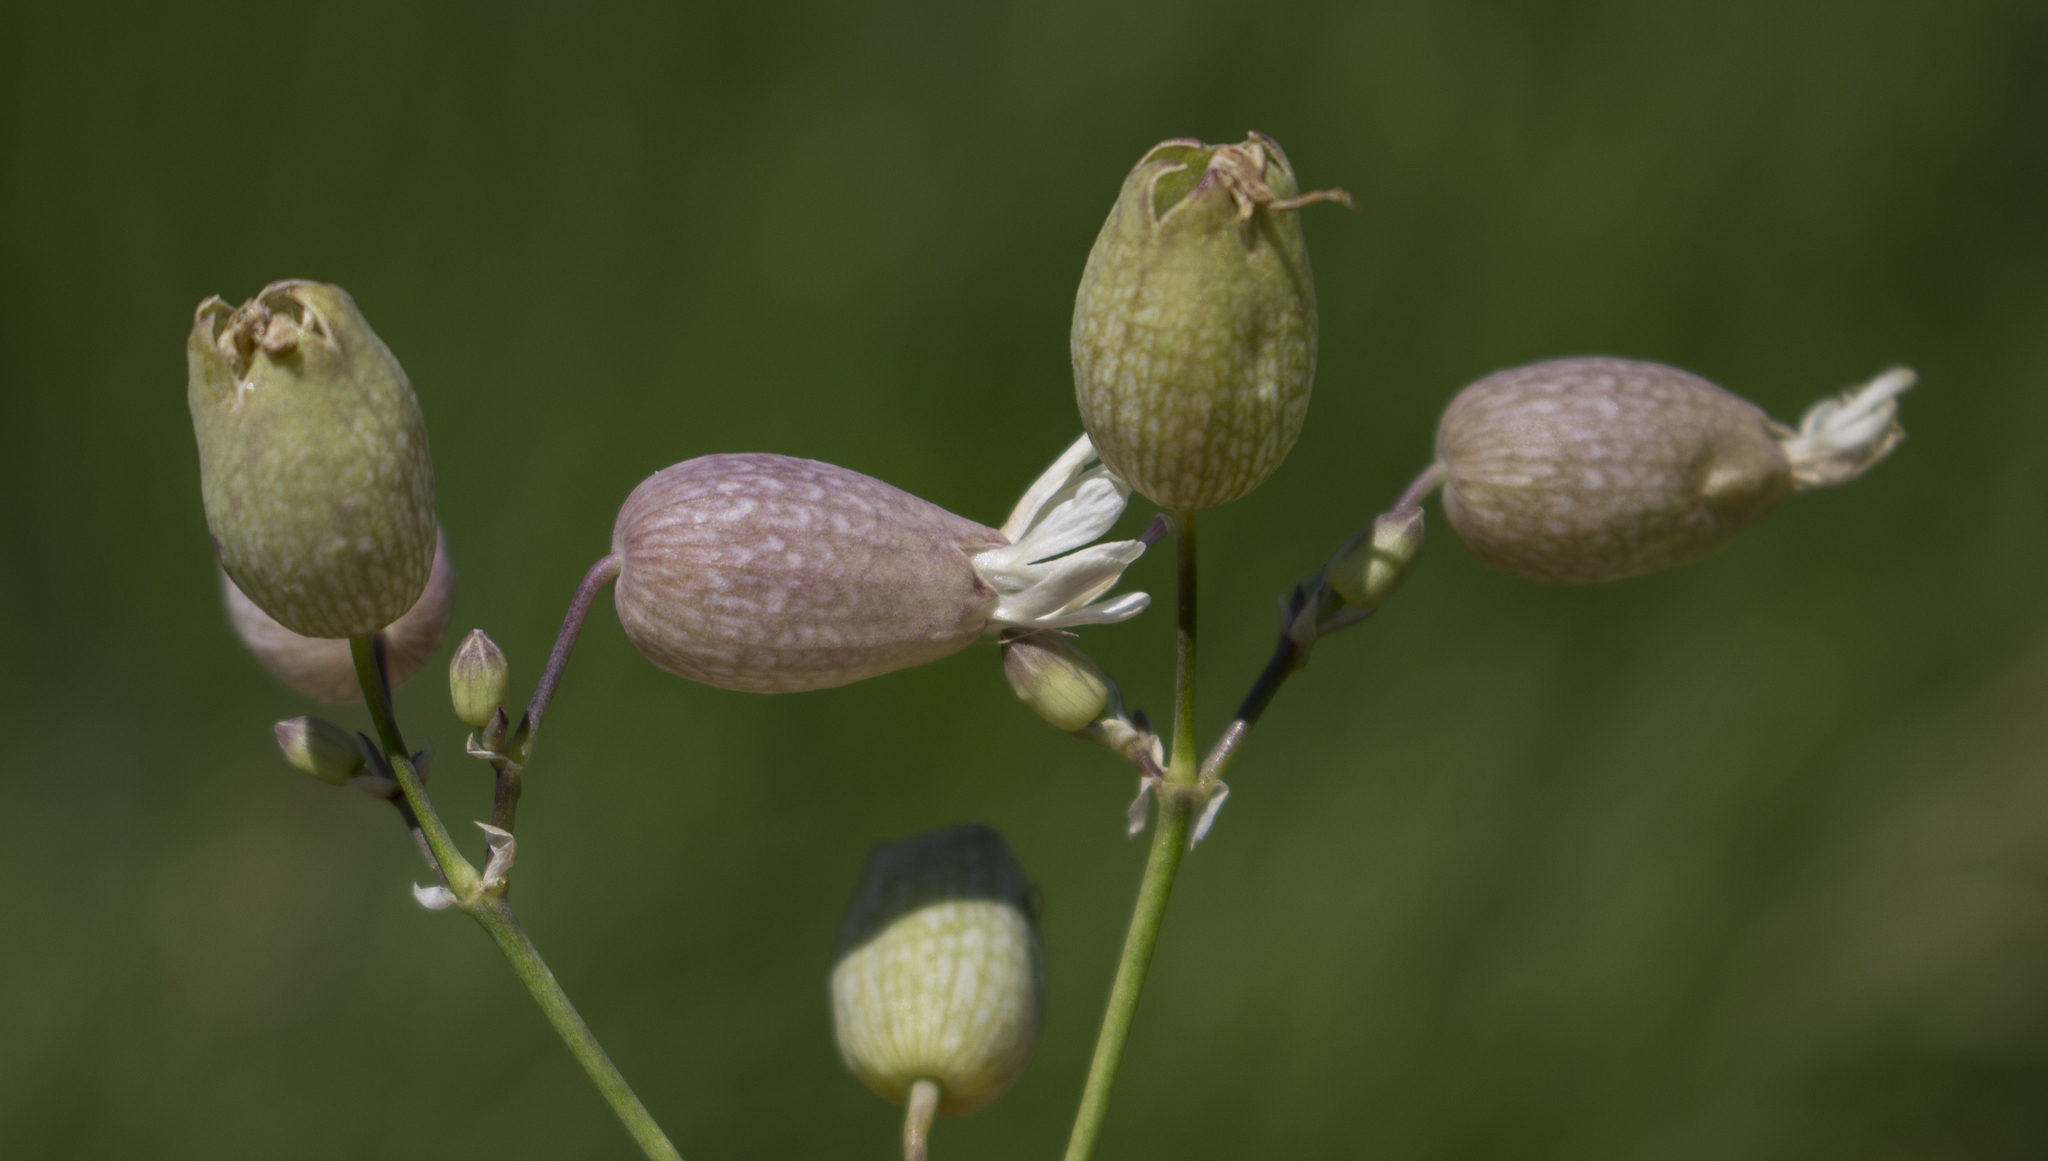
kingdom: Plantae
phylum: Tracheophyta
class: Magnoliopsida
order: Caryophyllales
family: Caryophyllaceae
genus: Silene
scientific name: Silene vulgaris
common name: Bladder campion
